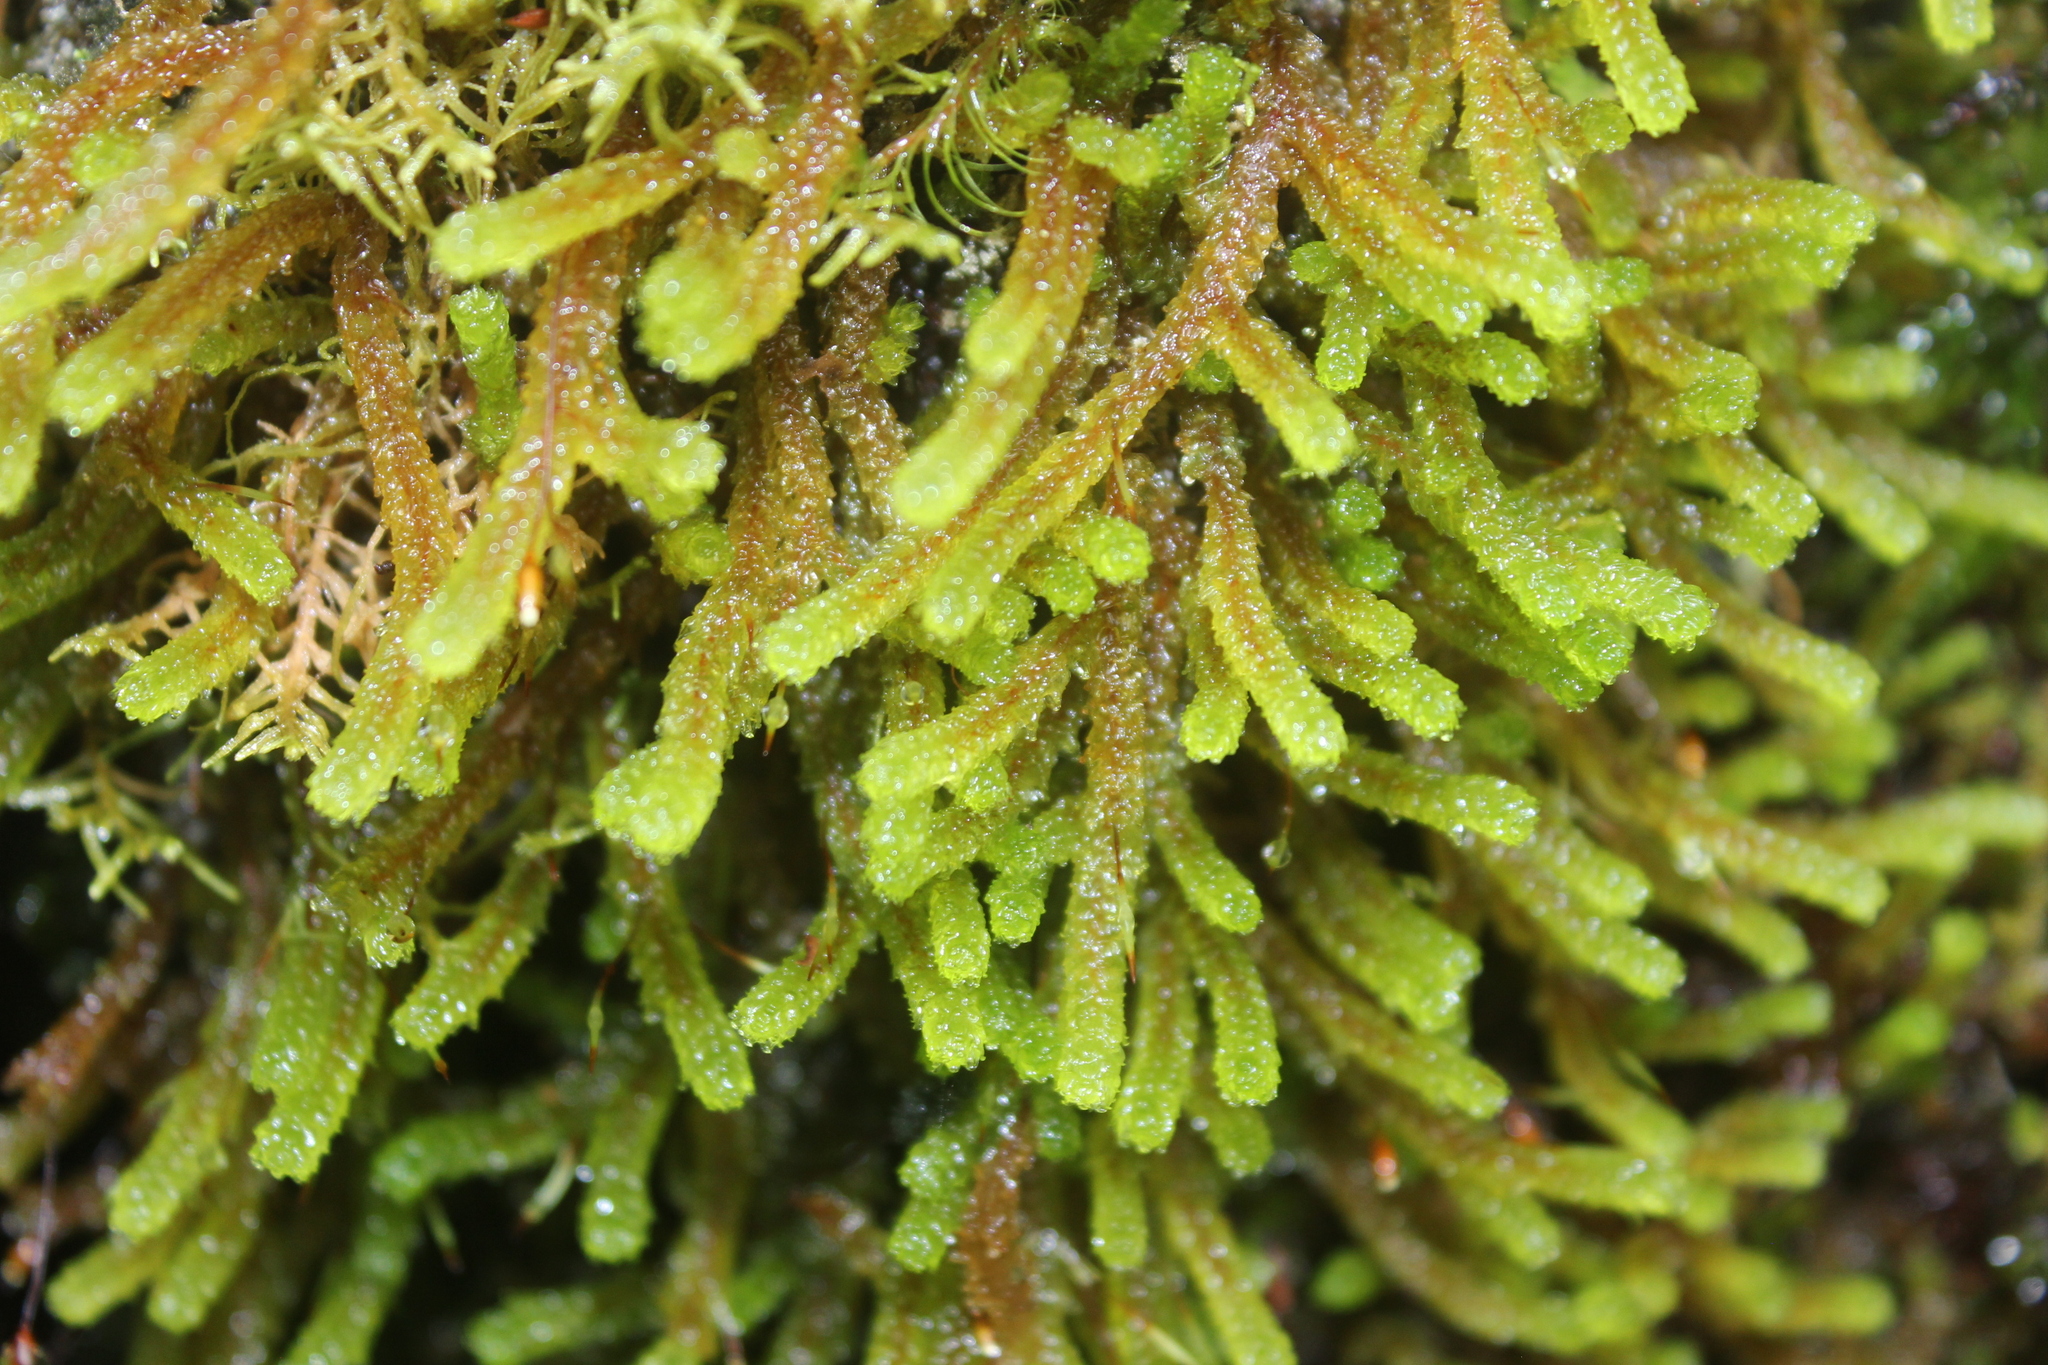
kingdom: Plantae
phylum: Bryophyta
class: Bryopsida
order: Ptychomniales
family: Ptychomniaceae
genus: Cladomnion
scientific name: Cladomnion ericoides
